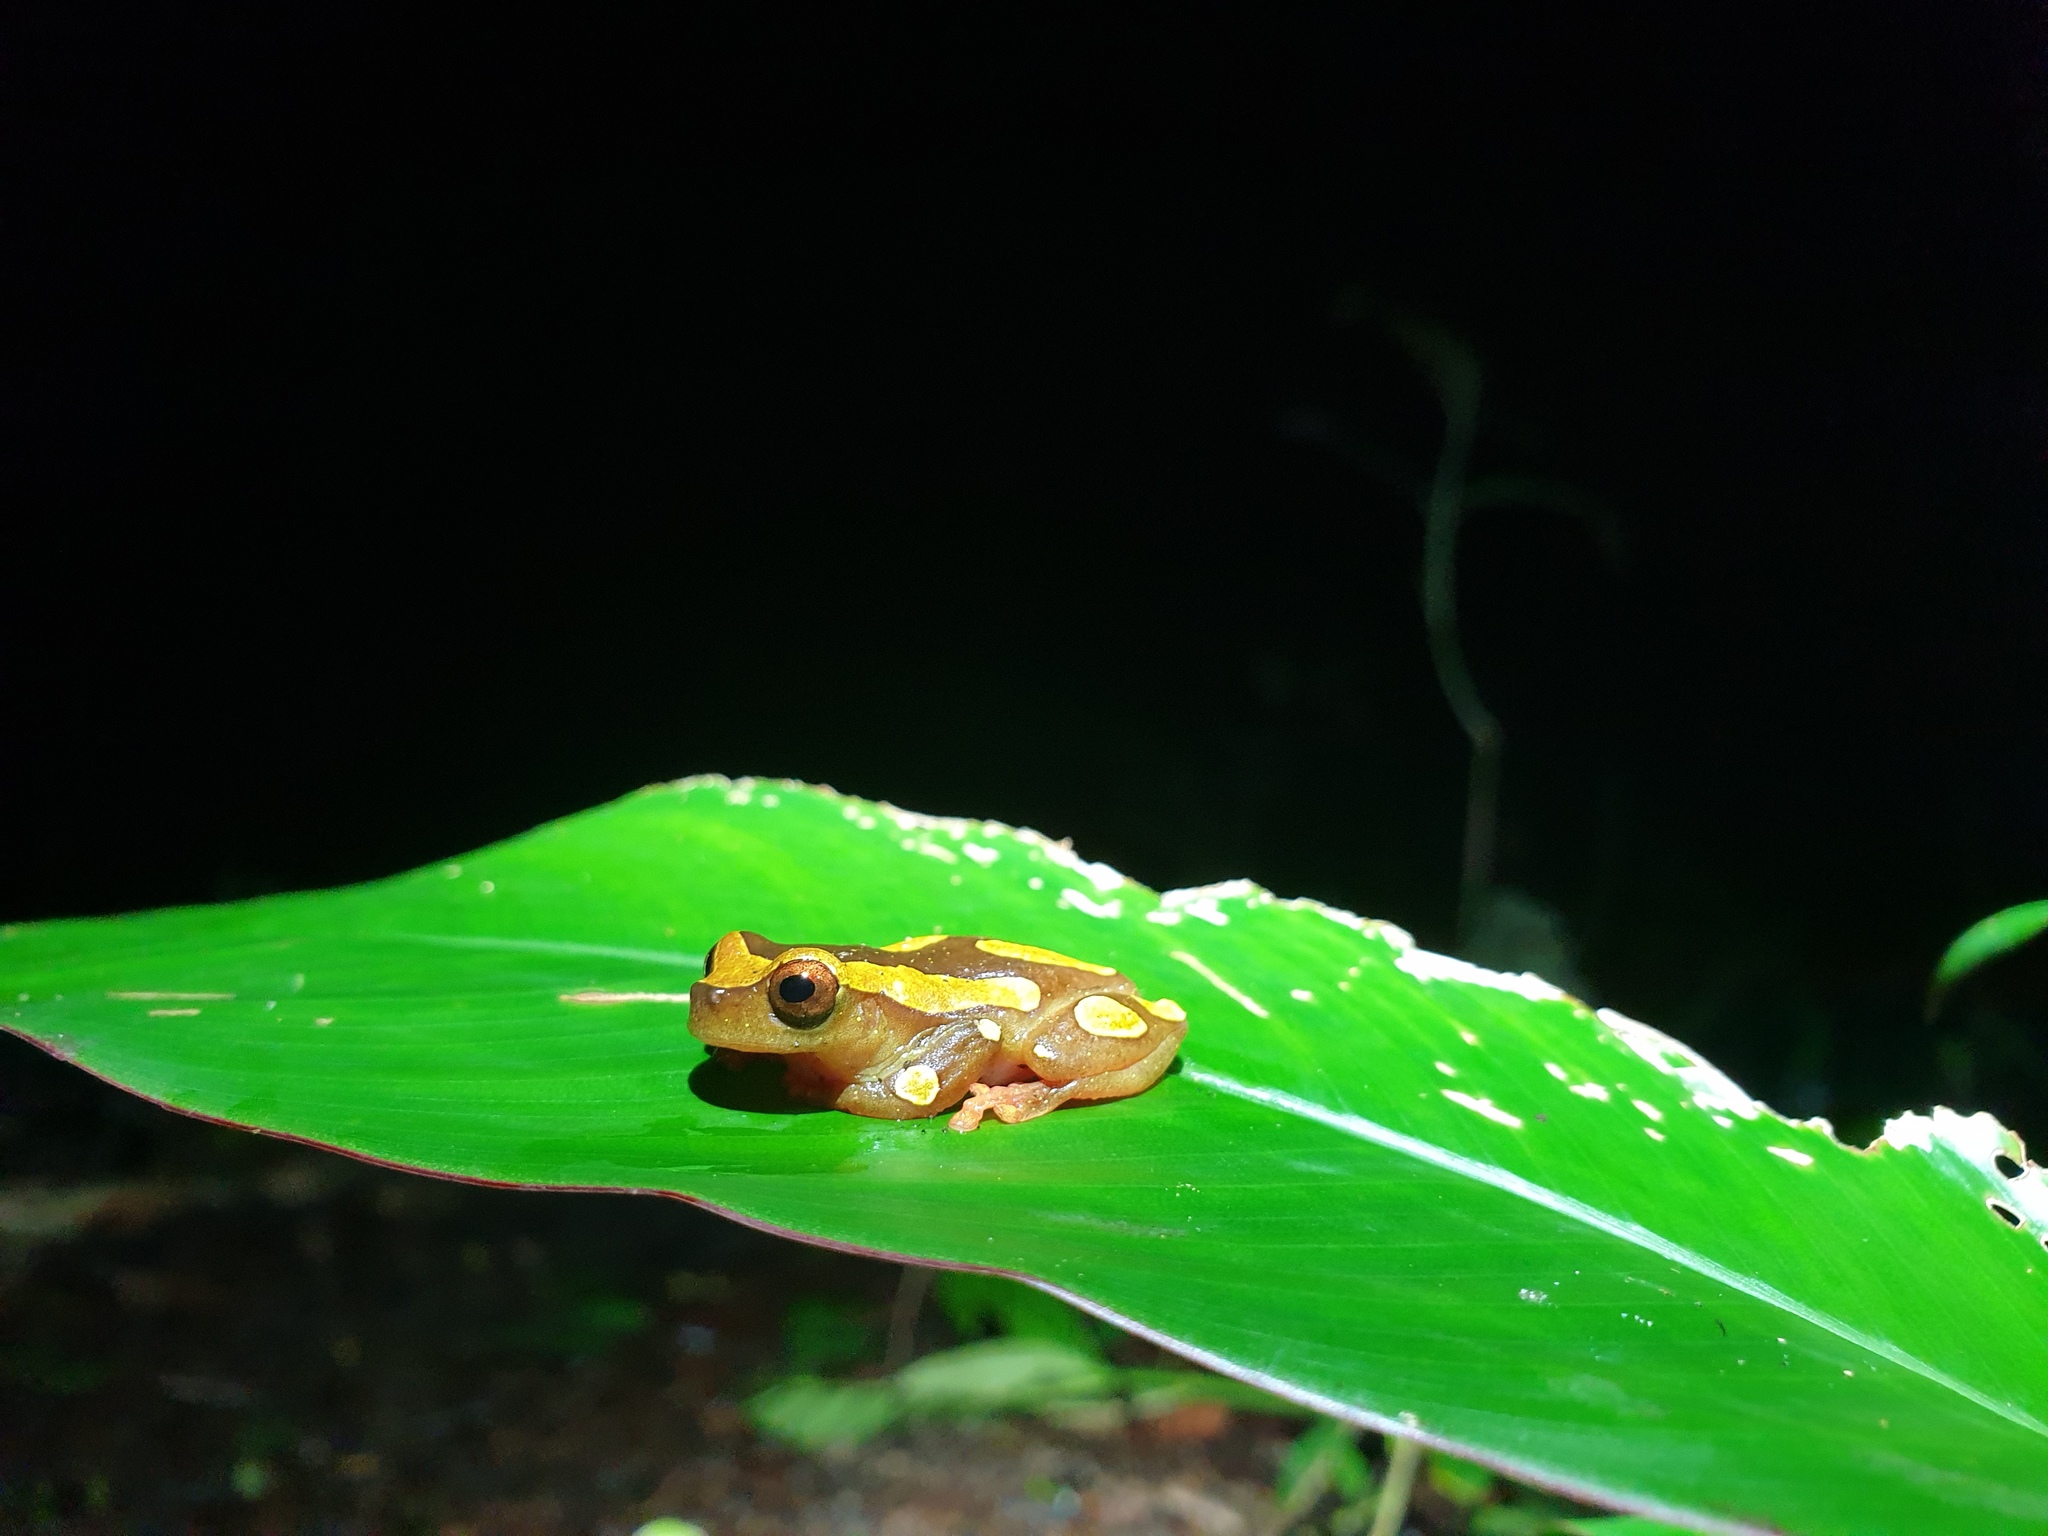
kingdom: Animalia
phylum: Chordata
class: Amphibia
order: Anura
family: Hylidae
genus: Dendropsophus
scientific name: Dendropsophus leucophyllatus
